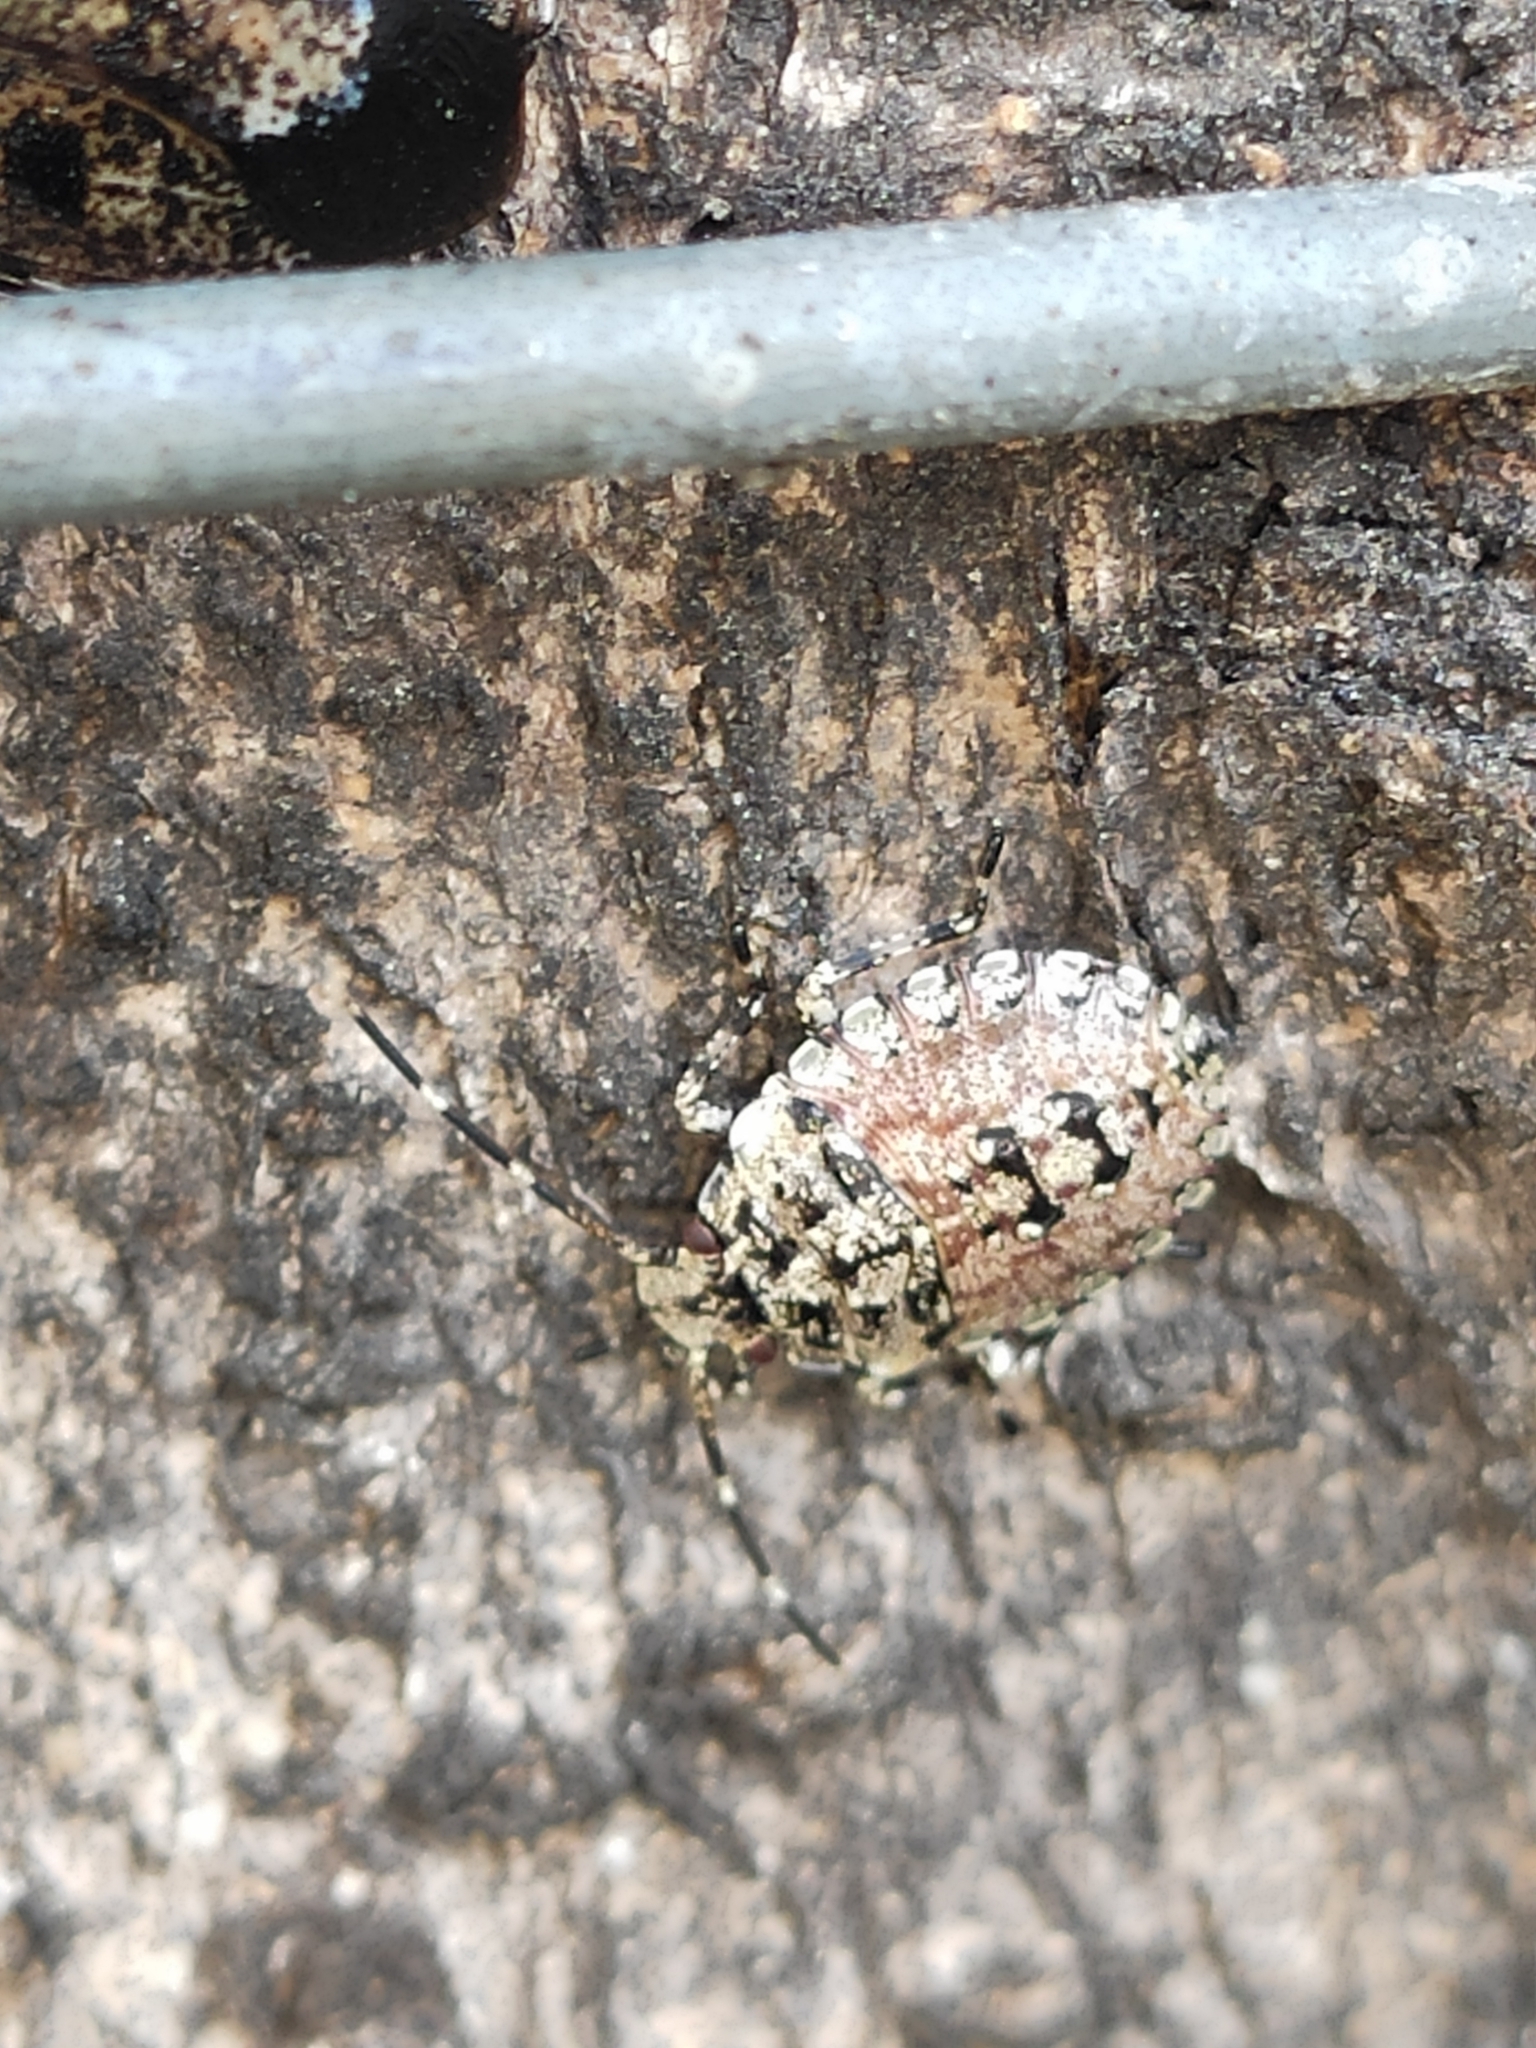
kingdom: Animalia
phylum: Arthropoda
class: Insecta
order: Hemiptera
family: Pentatomidae
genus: Antiteuchus
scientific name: Antiteuchus mixtus
